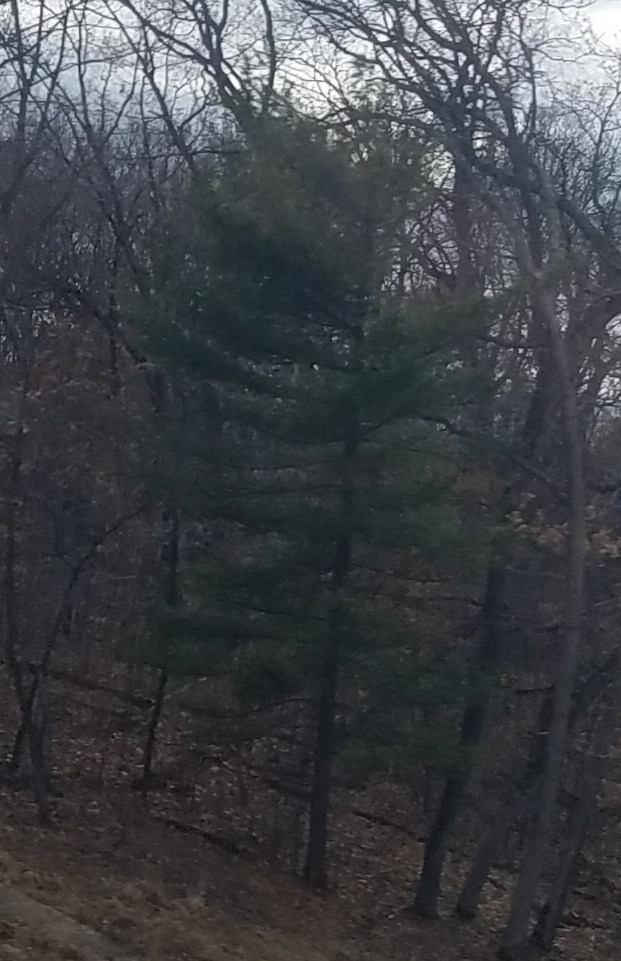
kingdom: Plantae
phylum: Tracheophyta
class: Pinopsida
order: Pinales
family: Pinaceae
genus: Pinus
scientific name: Pinus strobus
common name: Weymouth pine
